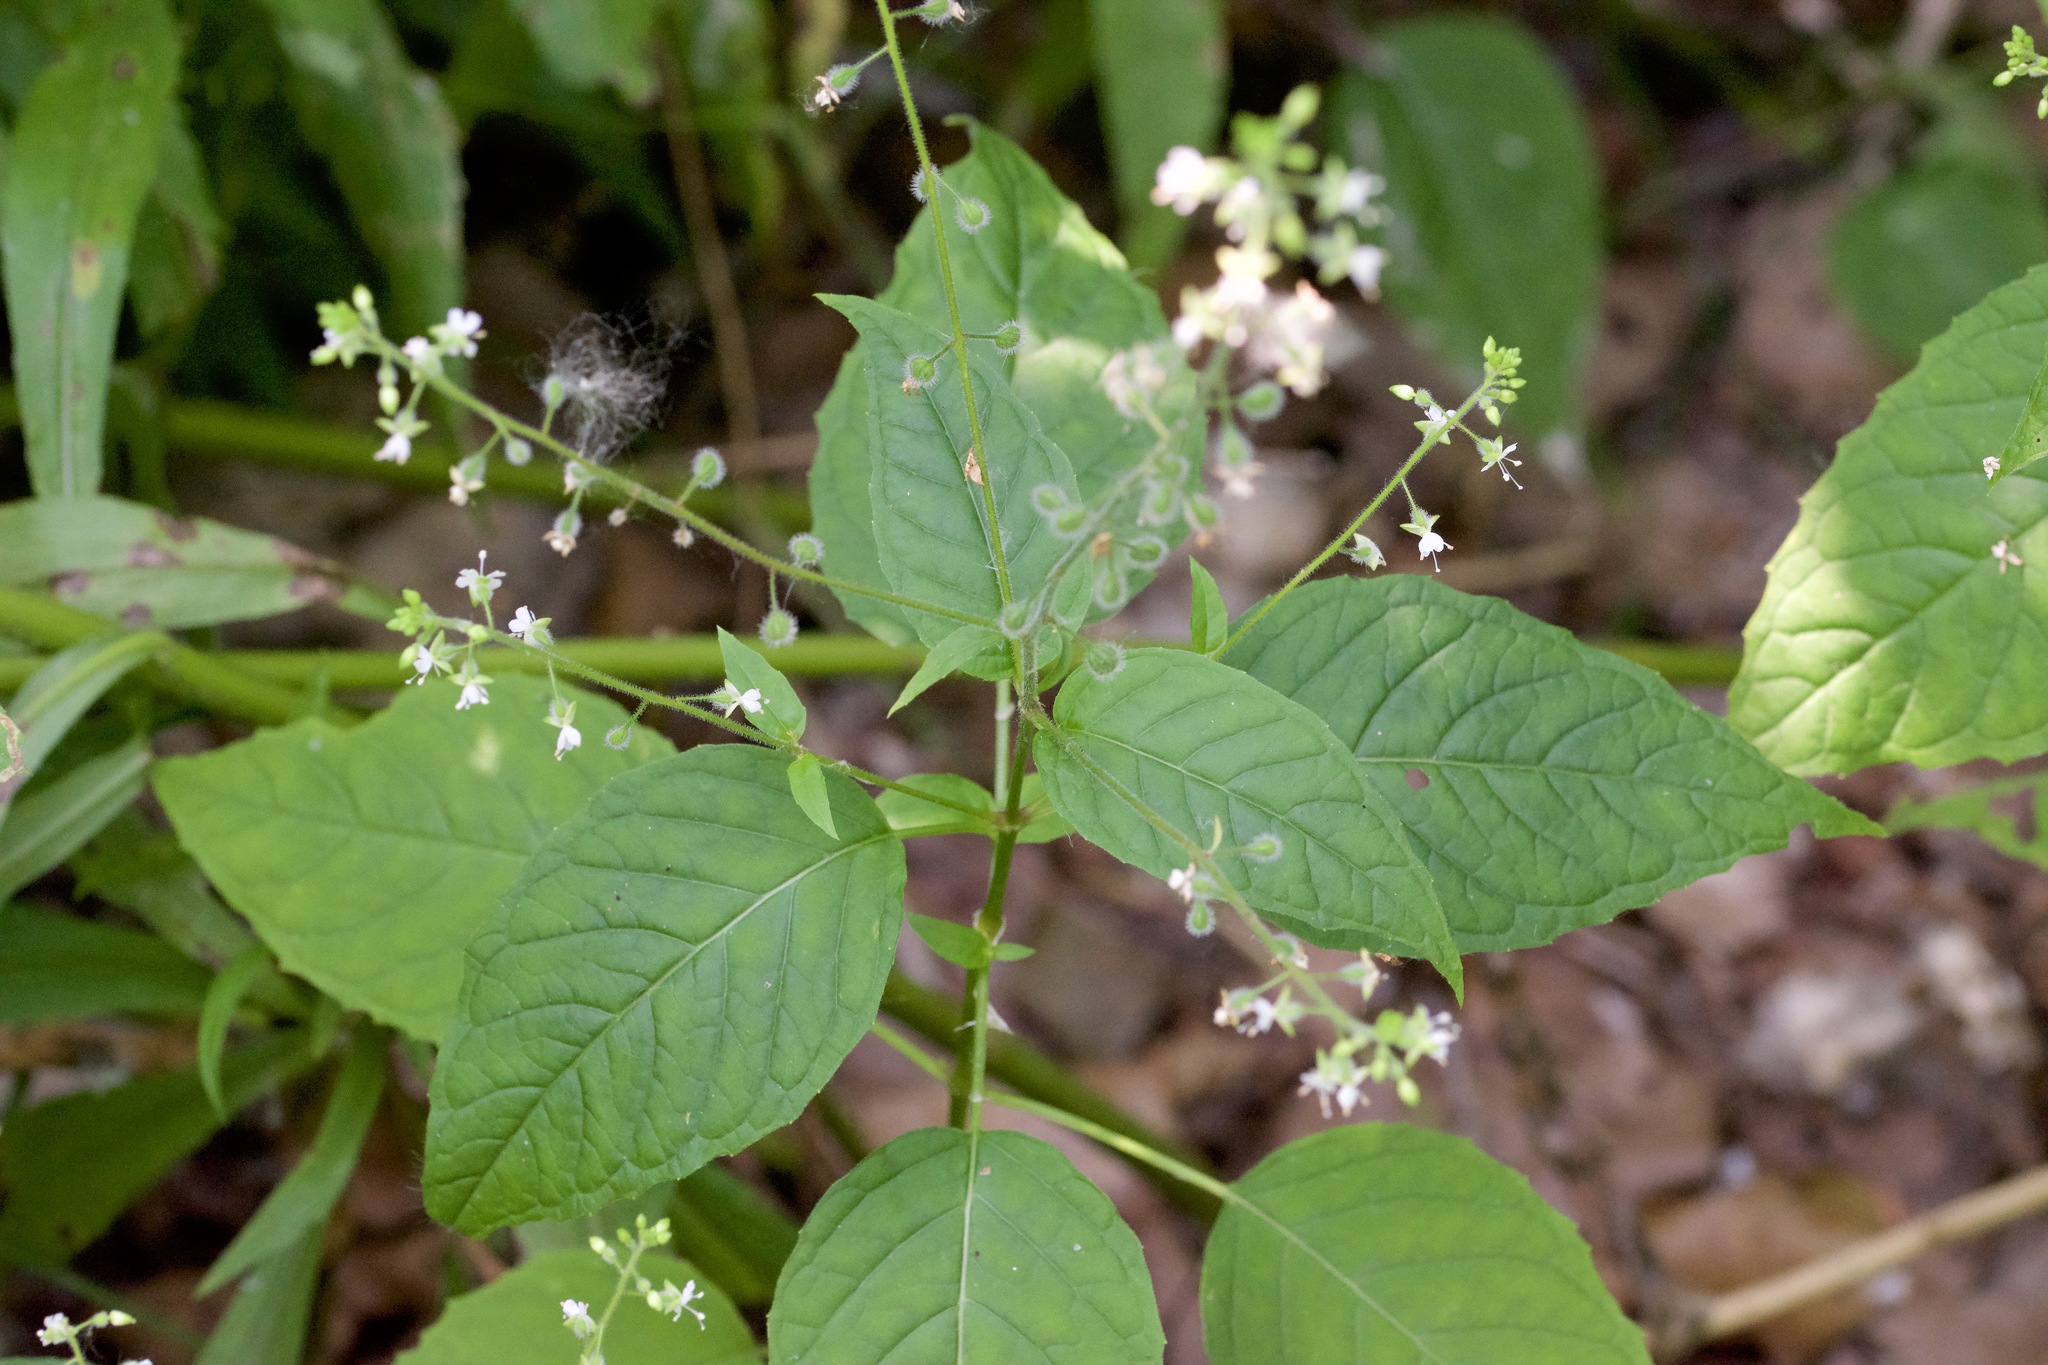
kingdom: Plantae
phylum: Tracheophyta
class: Magnoliopsida
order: Myrtales
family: Onagraceae
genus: Circaea
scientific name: Circaea canadensis
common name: Broad-leaved enchanter's nightshade
